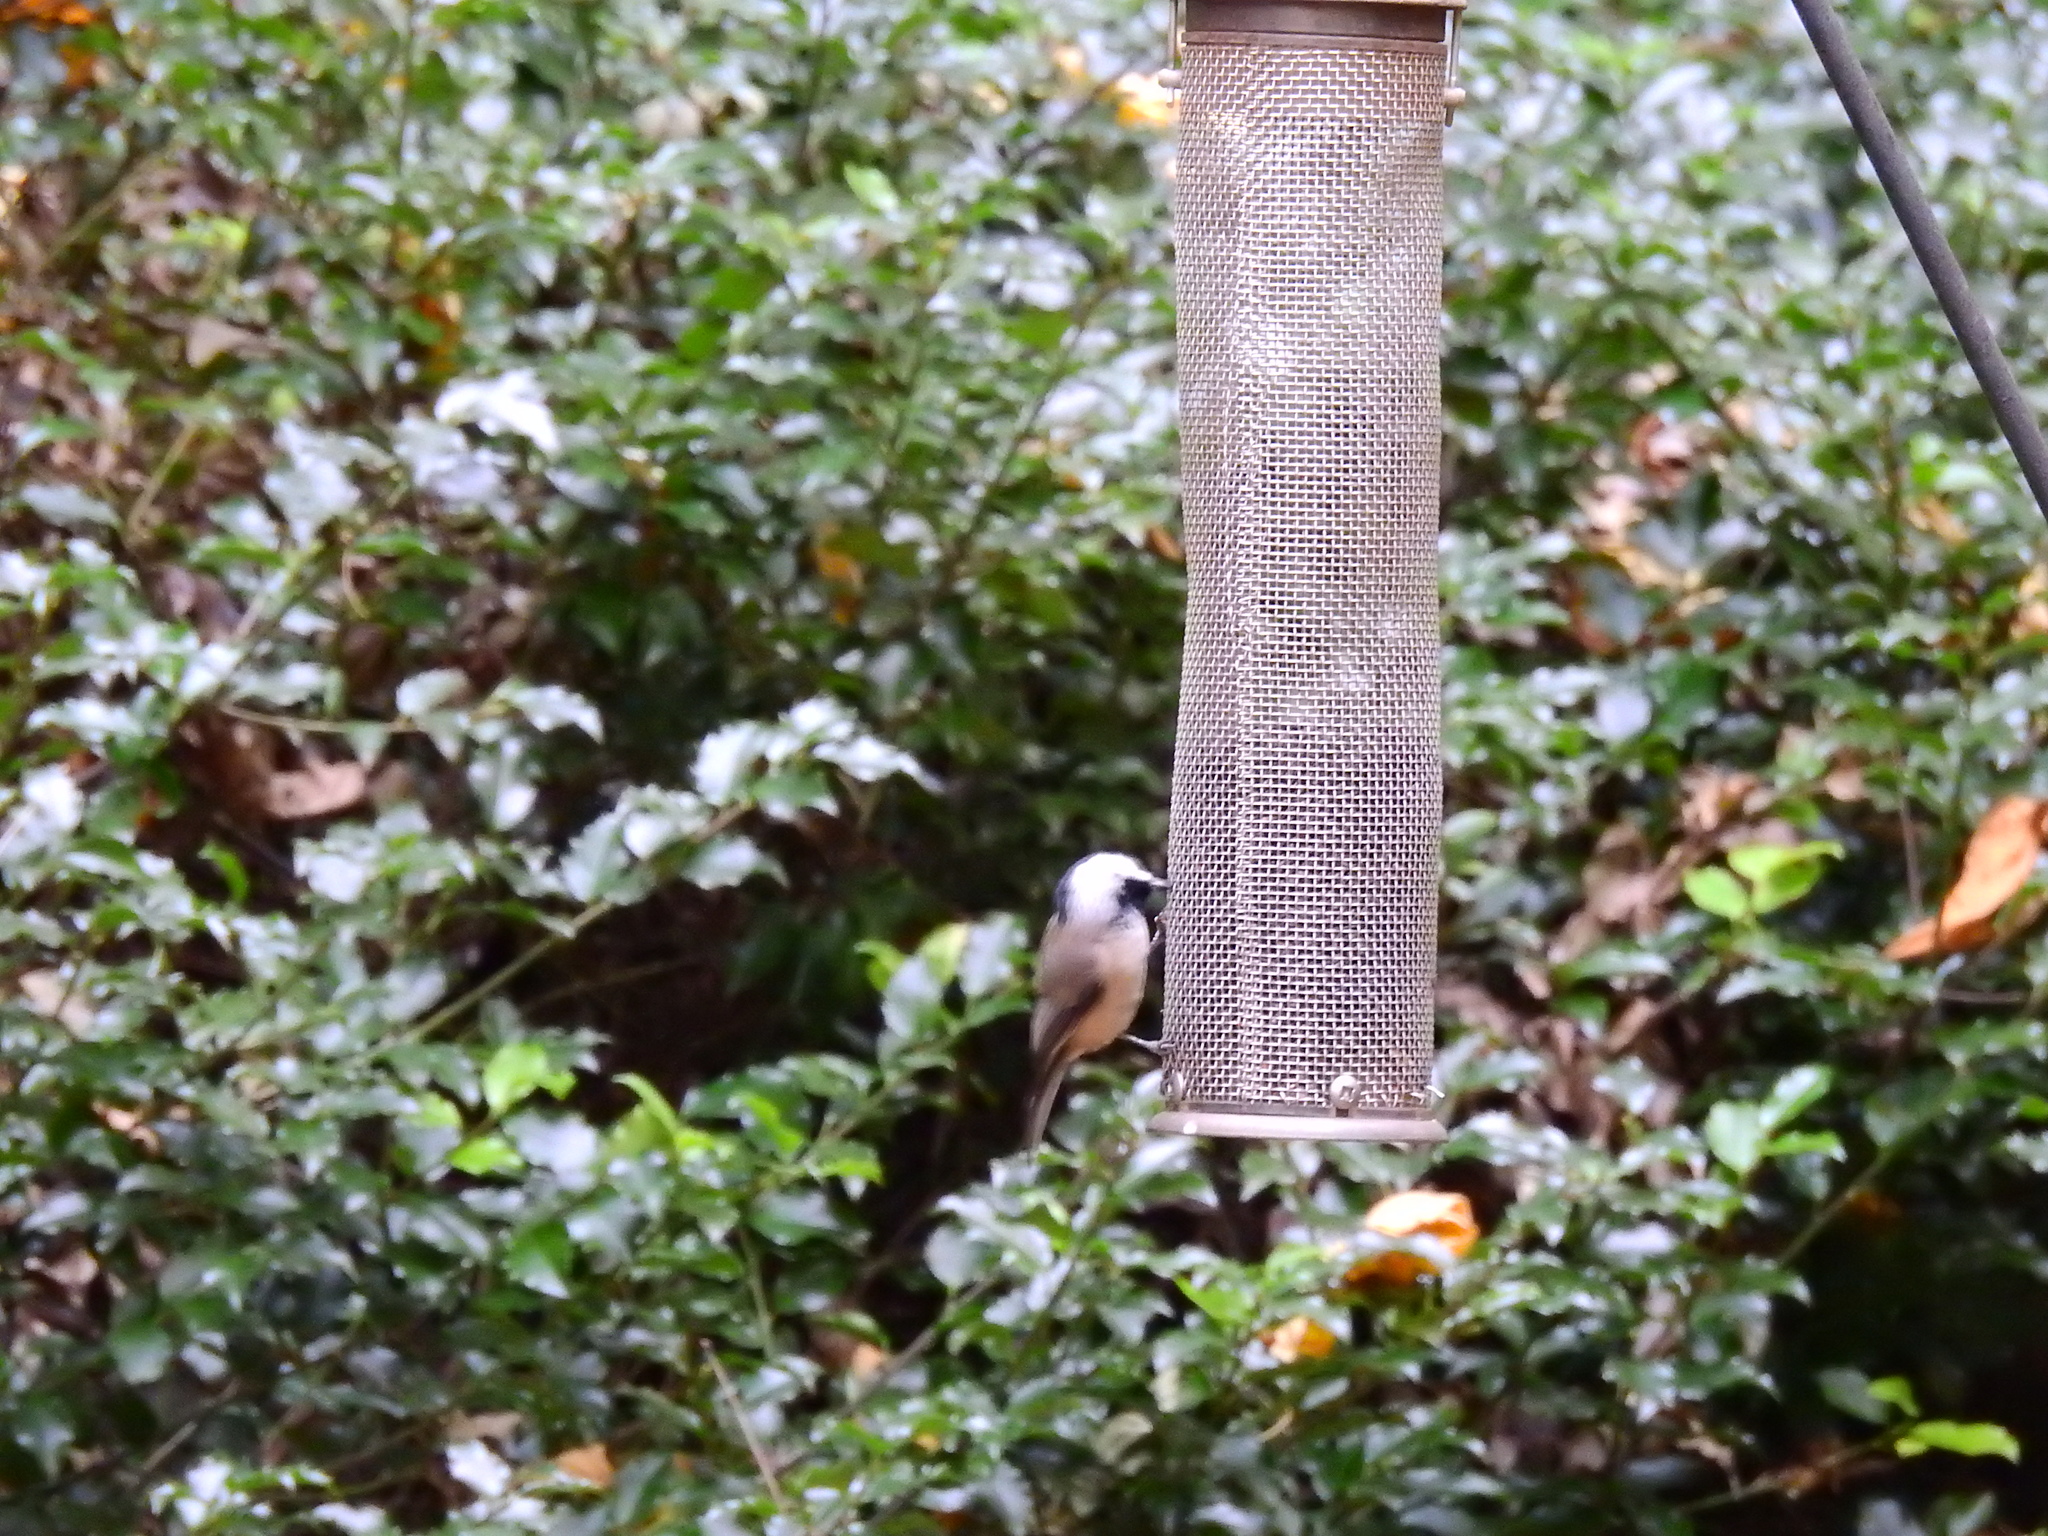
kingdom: Animalia
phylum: Chordata
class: Aves
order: Passeriformes
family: Paridae
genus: Poecile
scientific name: Poecile carolinensis
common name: Carolina chickadee
